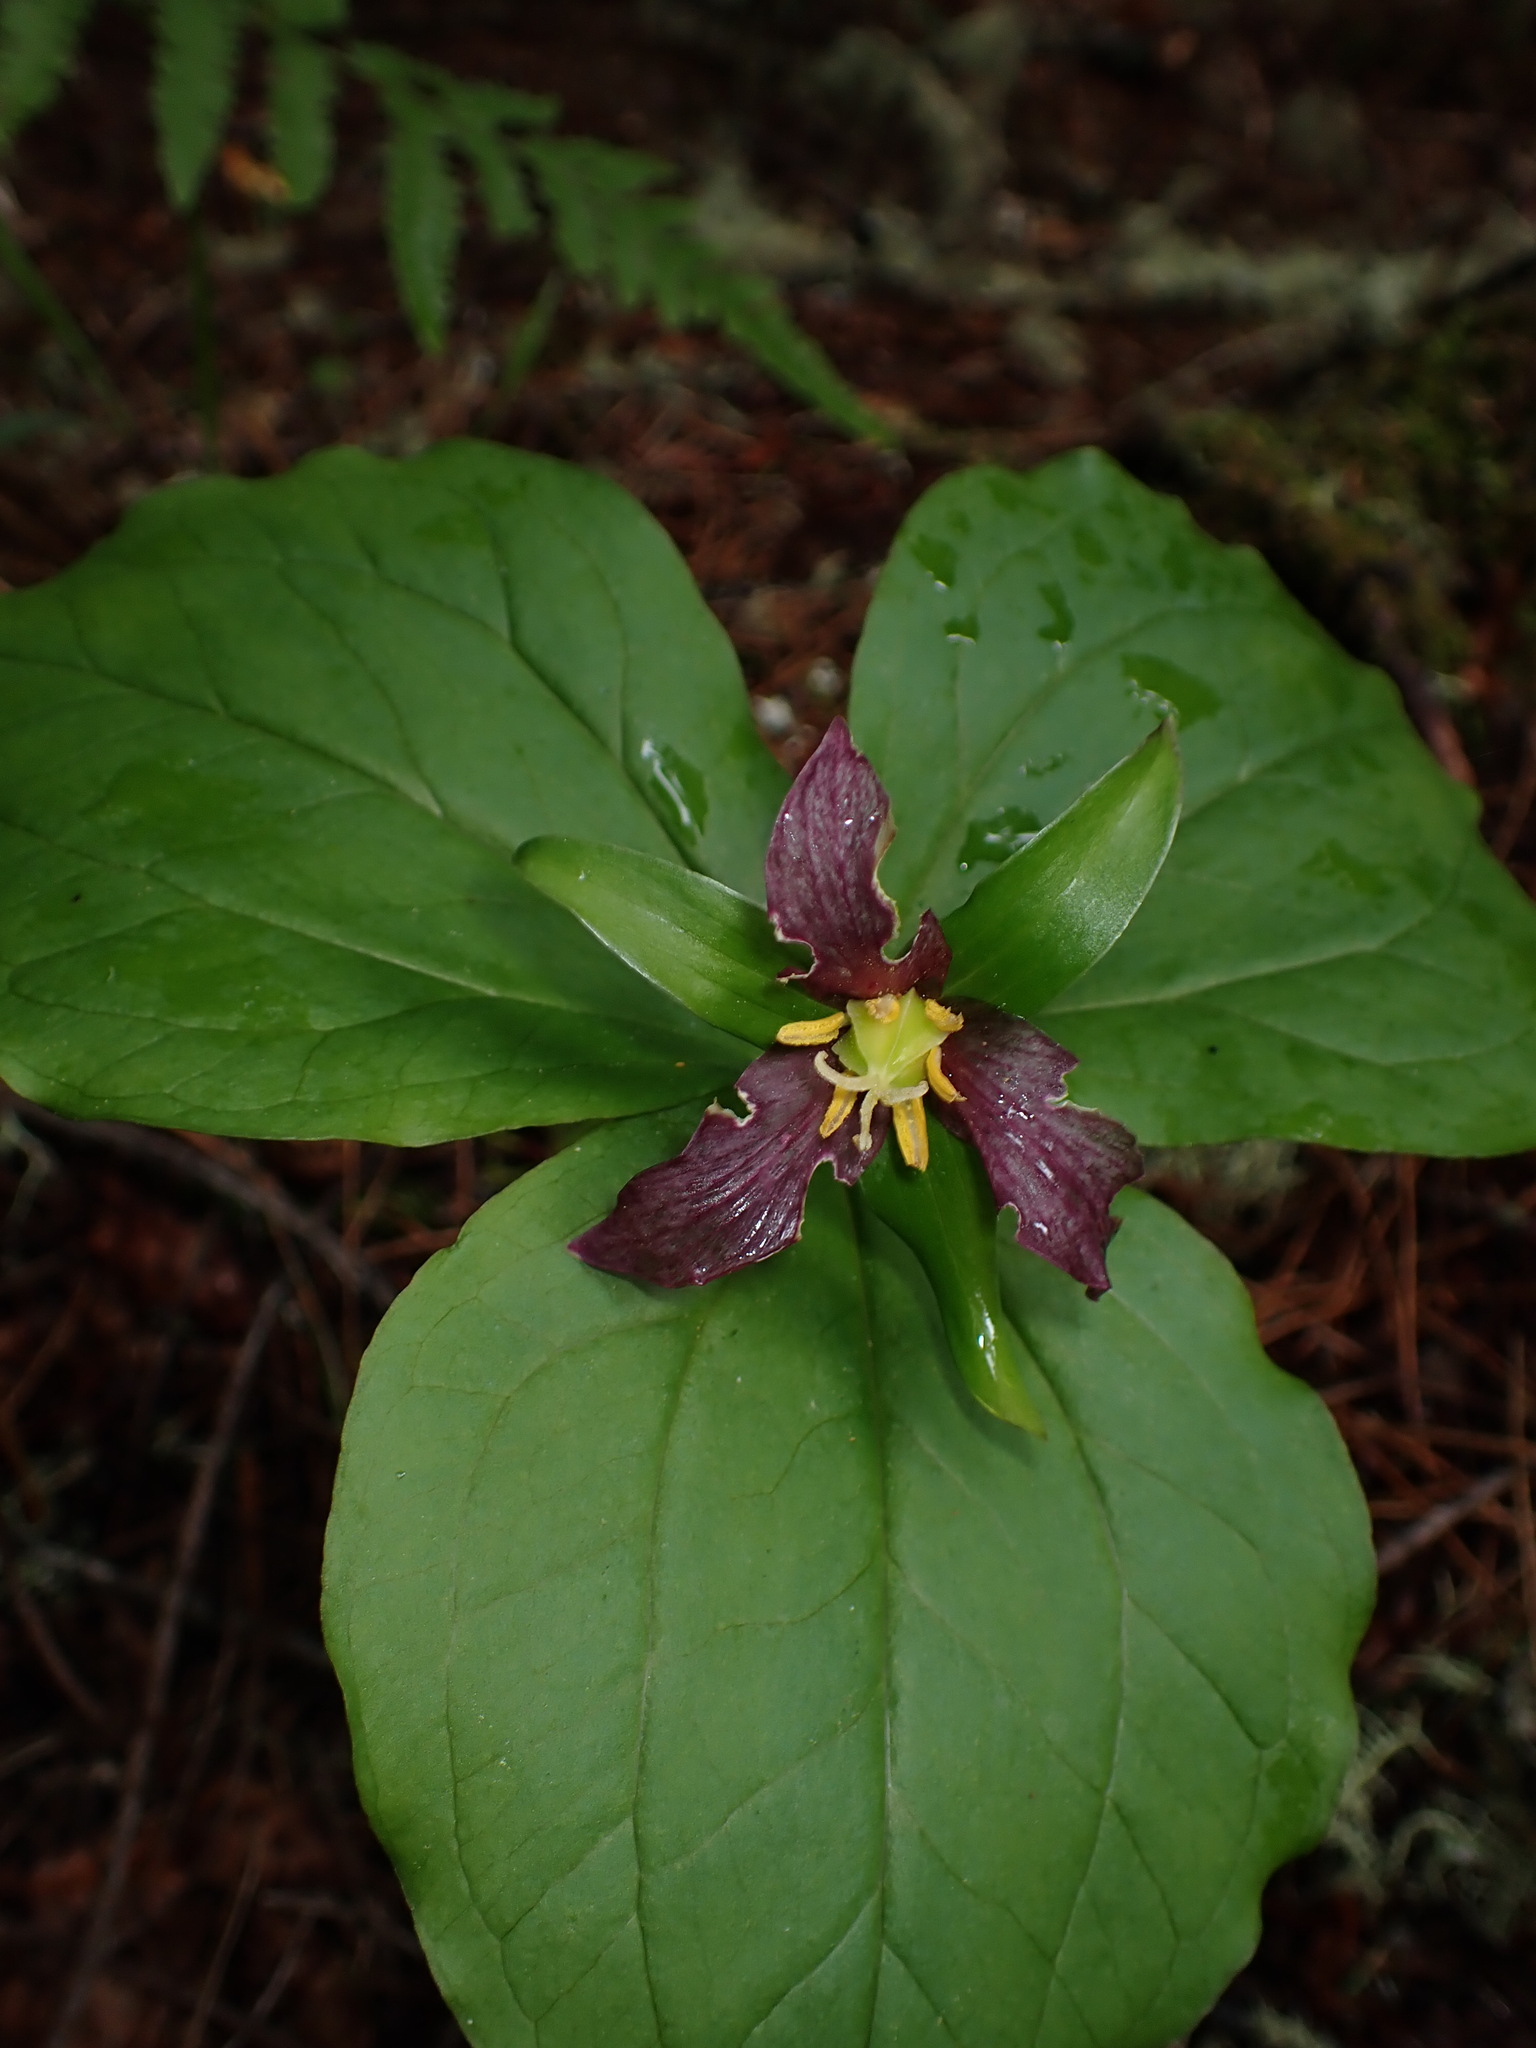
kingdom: Plantae
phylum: Tracheophyta
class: Liliopsida
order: Liliales
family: Melanthiaceae
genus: Trillium
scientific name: Trillium ovatum
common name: Pacific trillium
